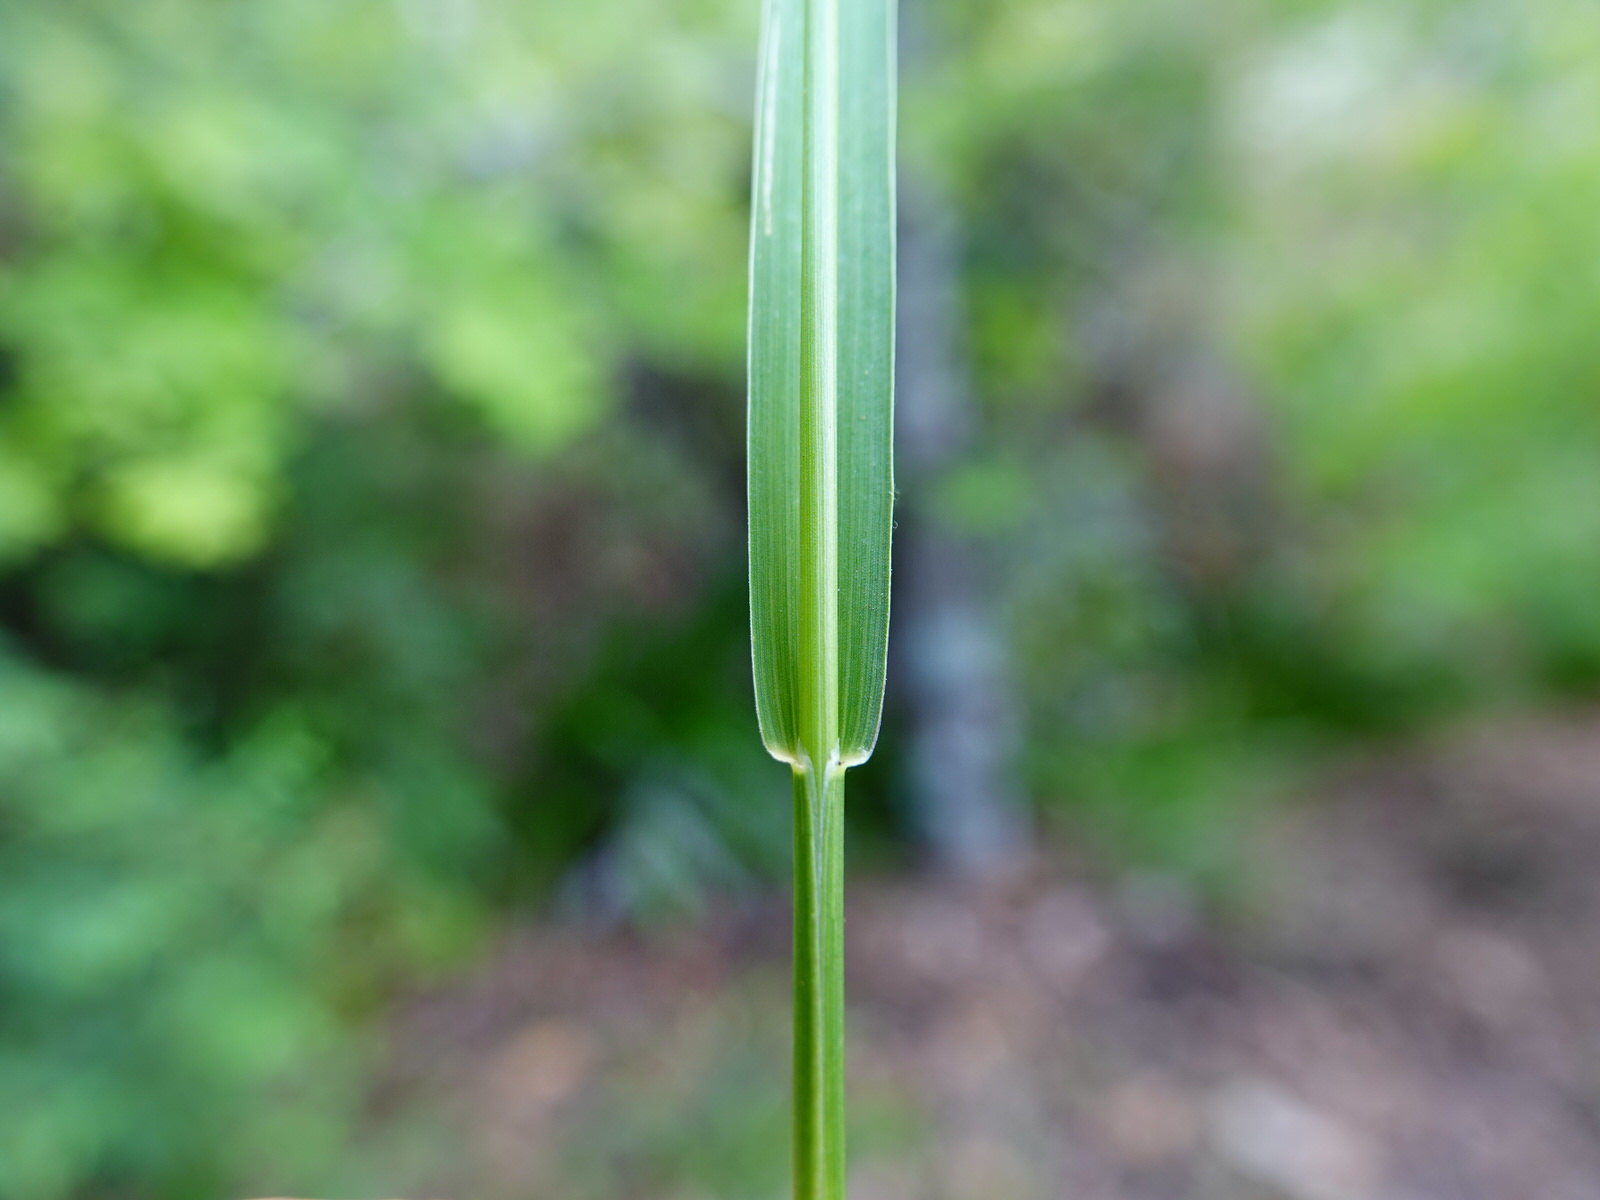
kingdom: Plantae
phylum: Tracheophyta
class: Liliopsida
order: Poales
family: Poaceae
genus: Setaria
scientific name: Setaria parviflora
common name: Knotroot bristle-grass
